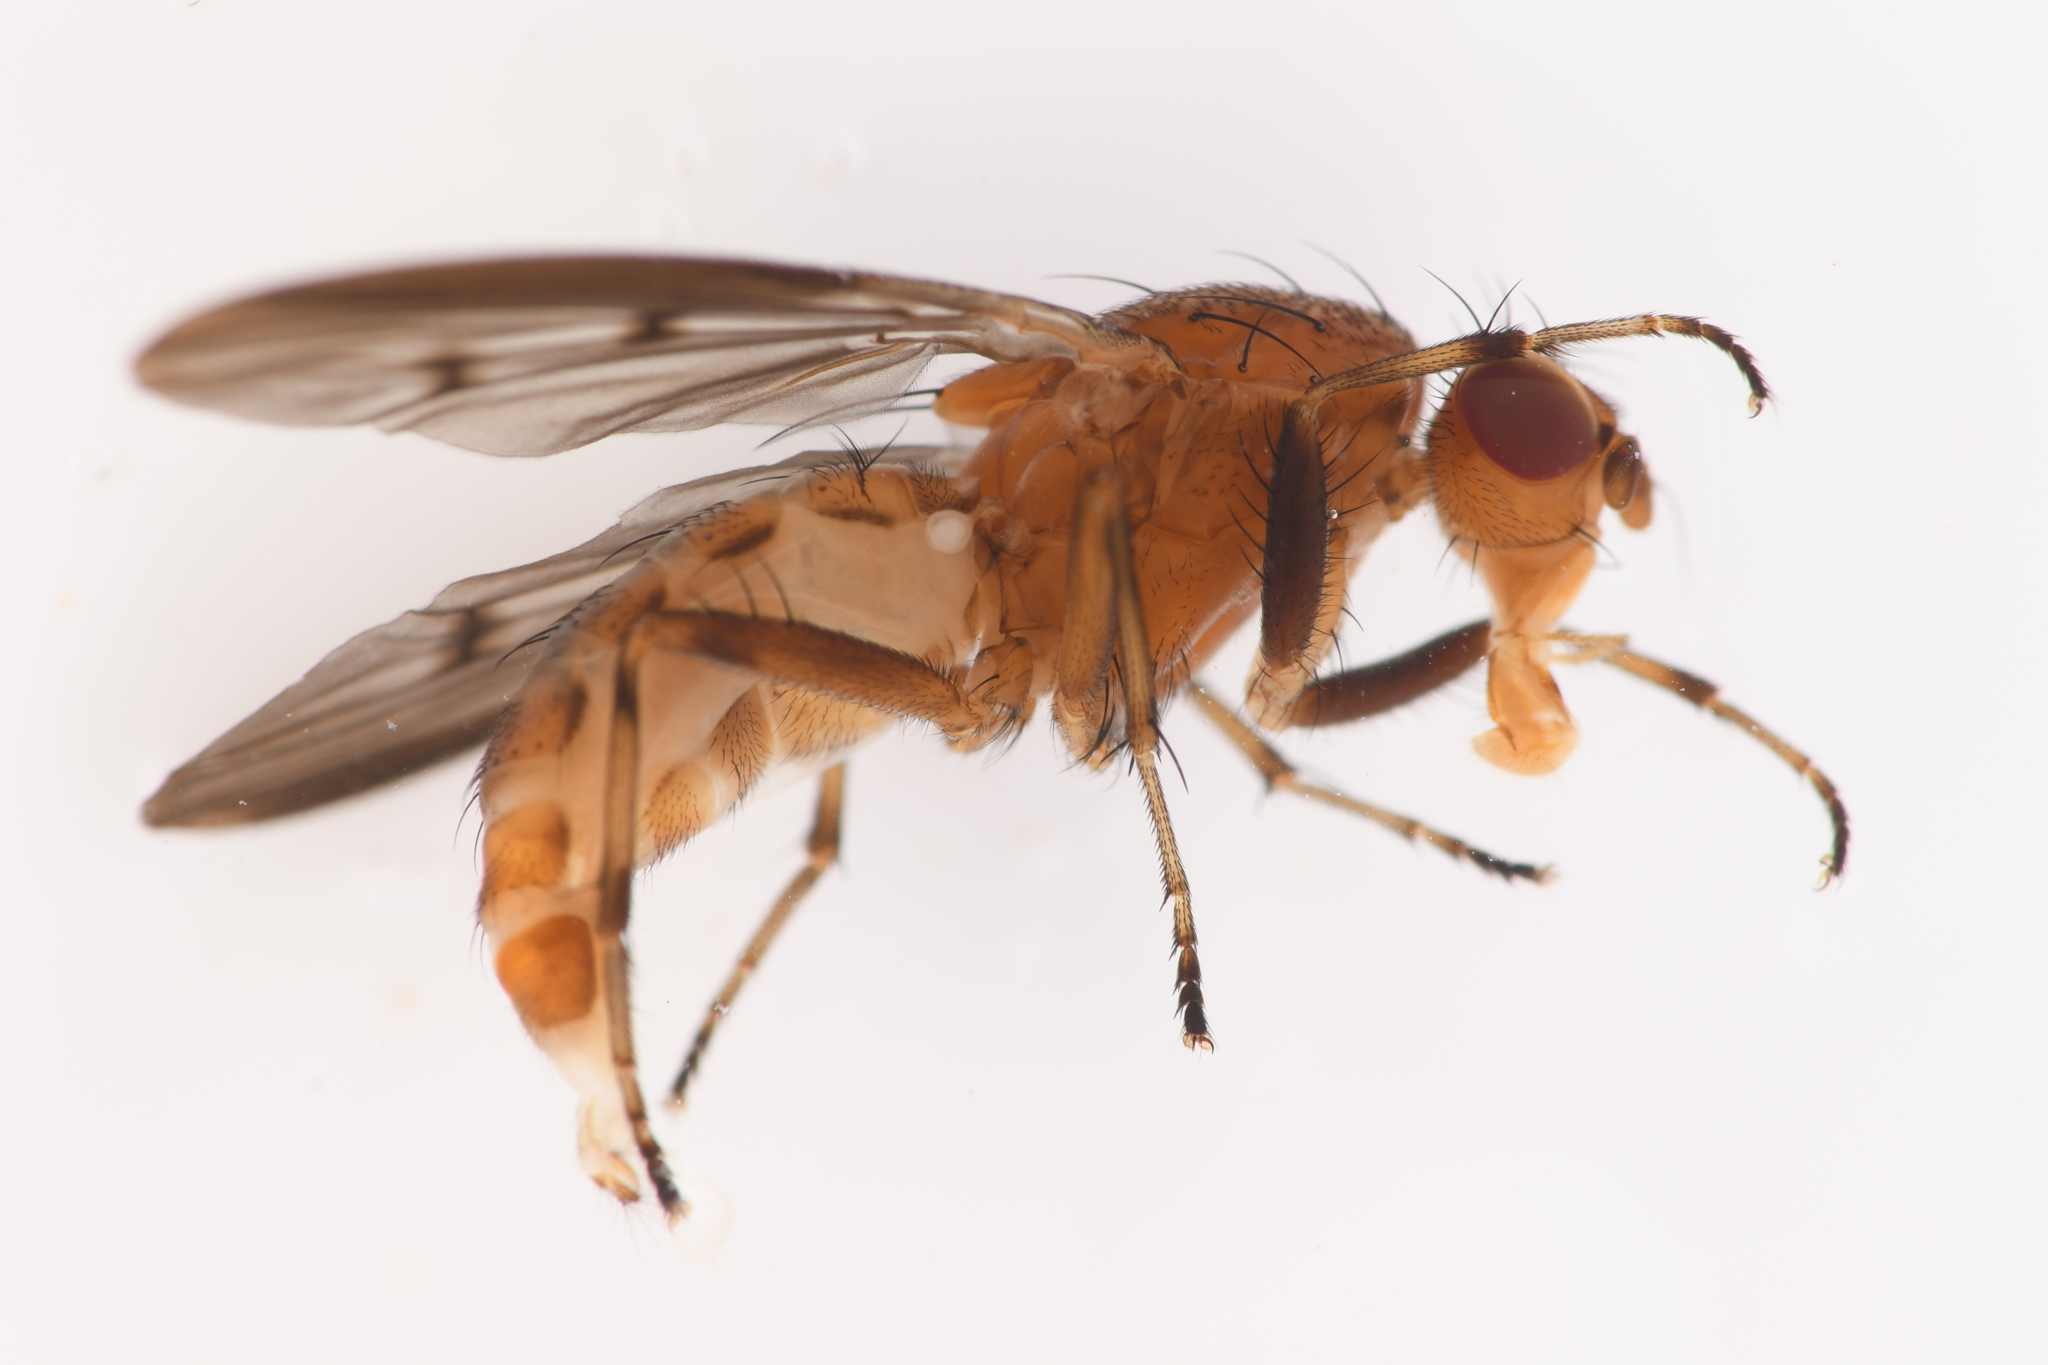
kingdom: Animalia
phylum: Arthropoda
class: Insecta
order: Diptera
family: Heleomyzidae
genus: Suillia
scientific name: Suillia barberi
